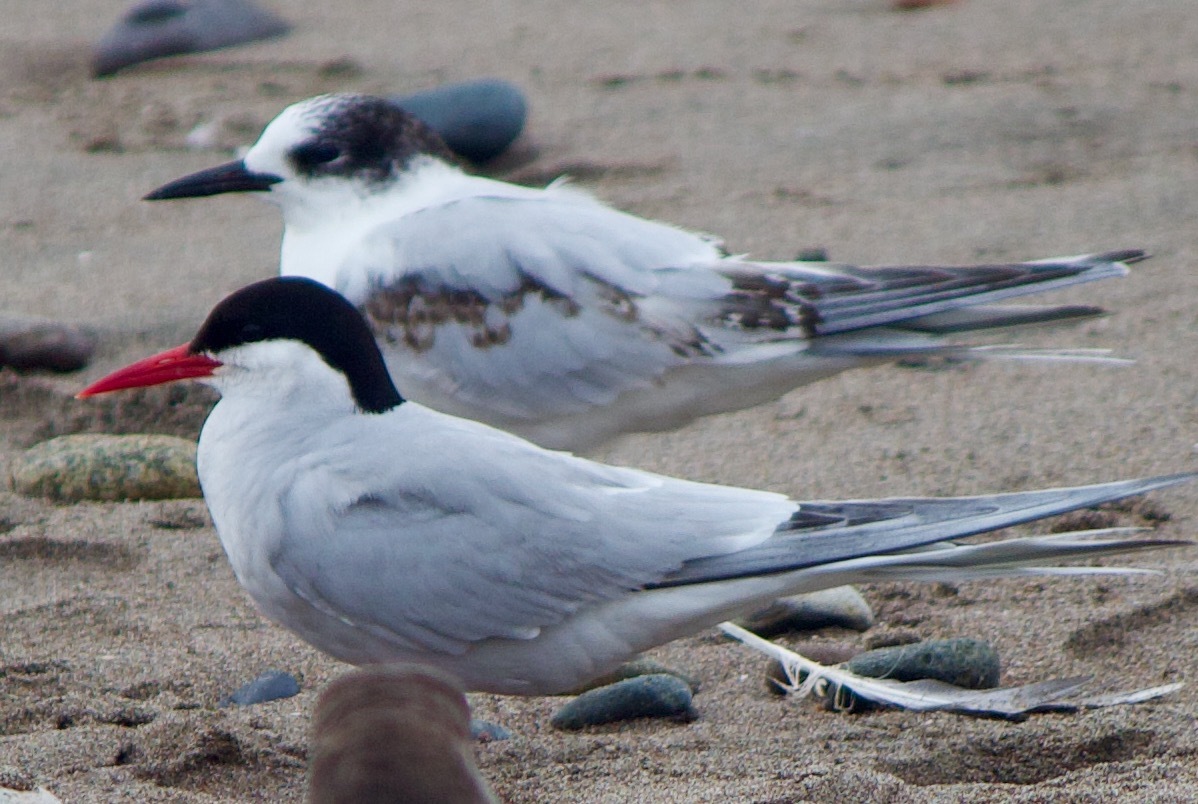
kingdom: Animalia
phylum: Chordata
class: Aves
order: Charadriiformes
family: Laridae
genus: Sterna
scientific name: Sterna hirundinacea
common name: South american tern
